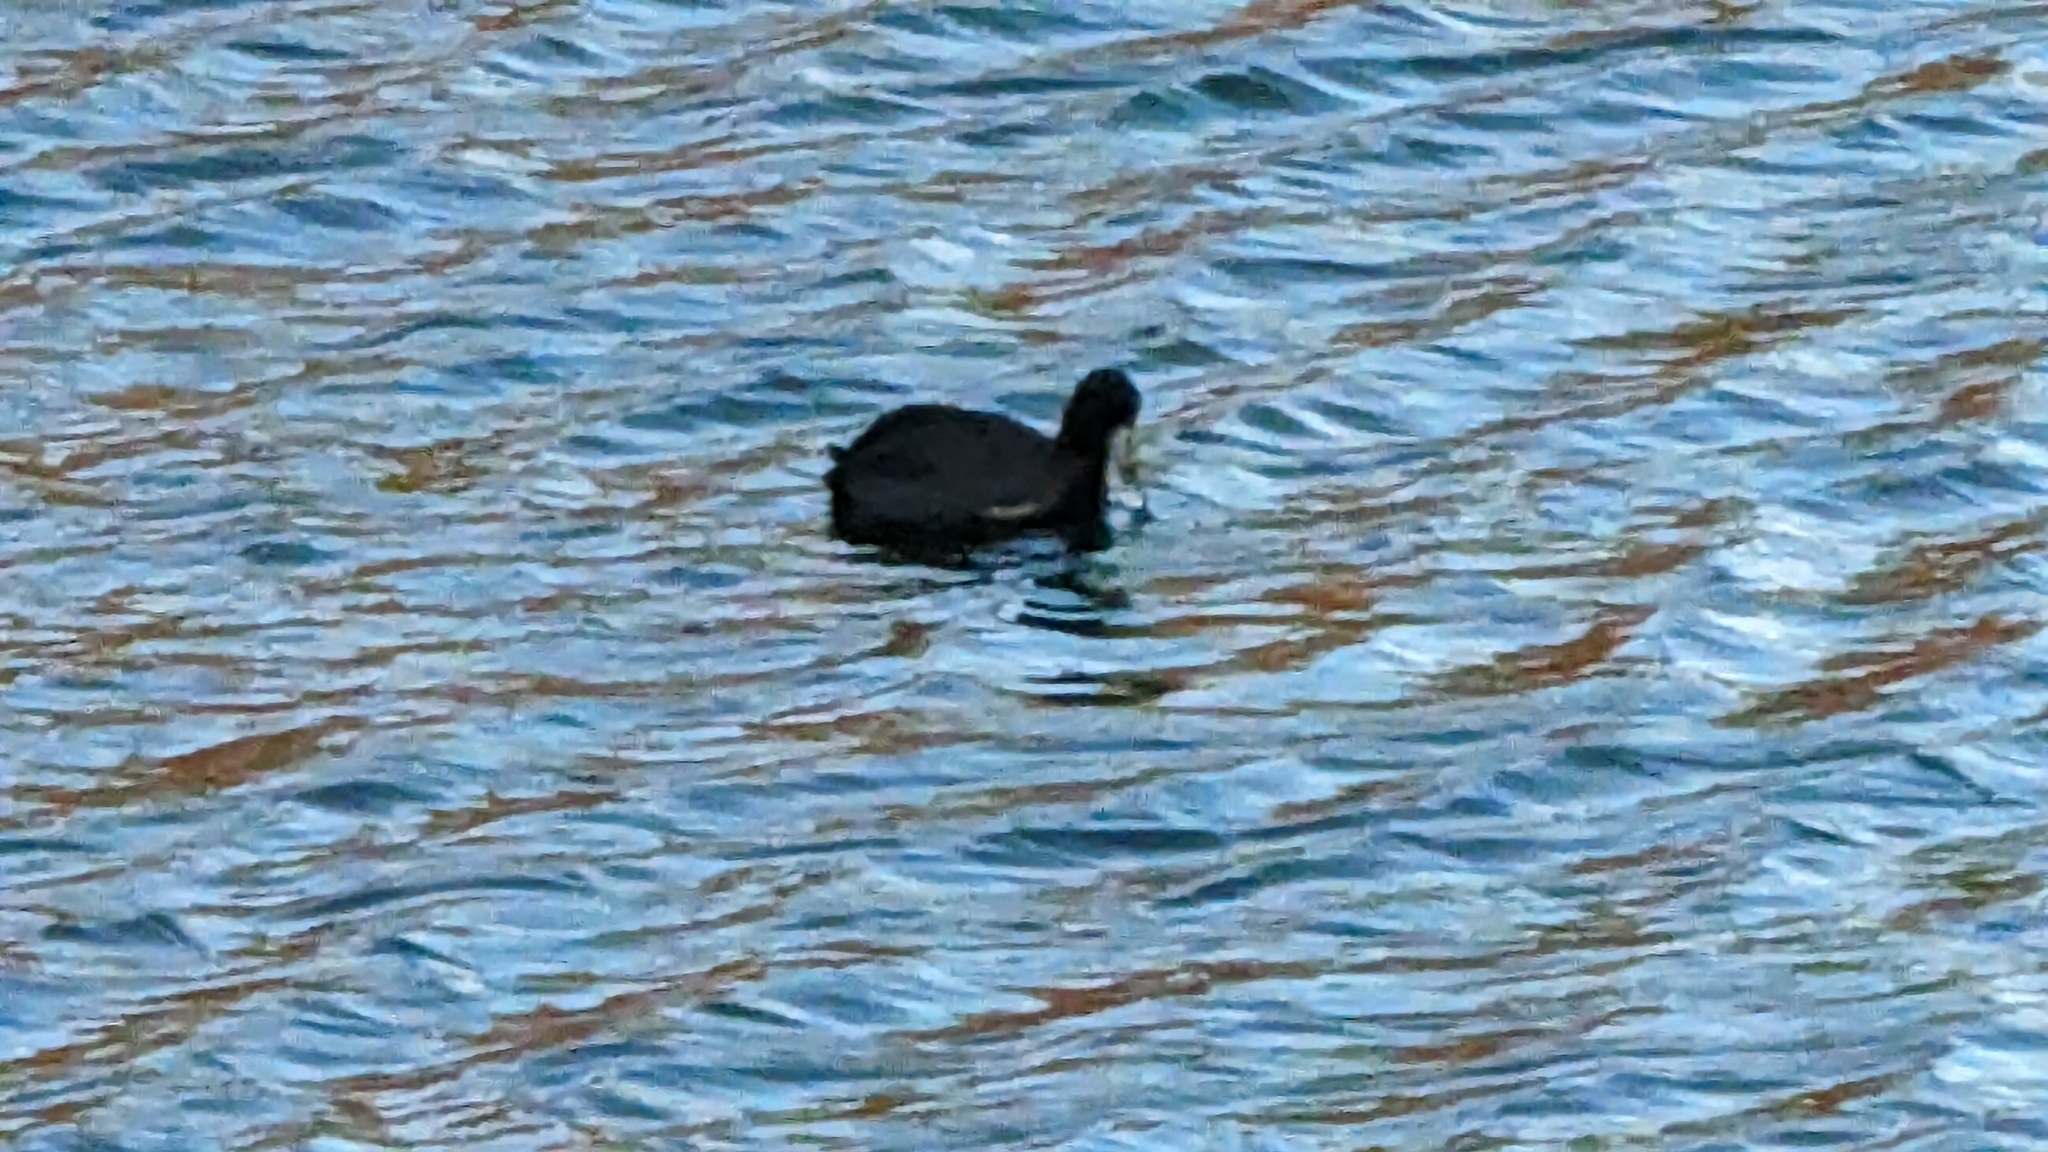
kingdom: Animalia
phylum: Chordata
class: Aves
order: Gruiformes
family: Rallidae
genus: Fulica
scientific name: Fulica americana
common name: American coot
